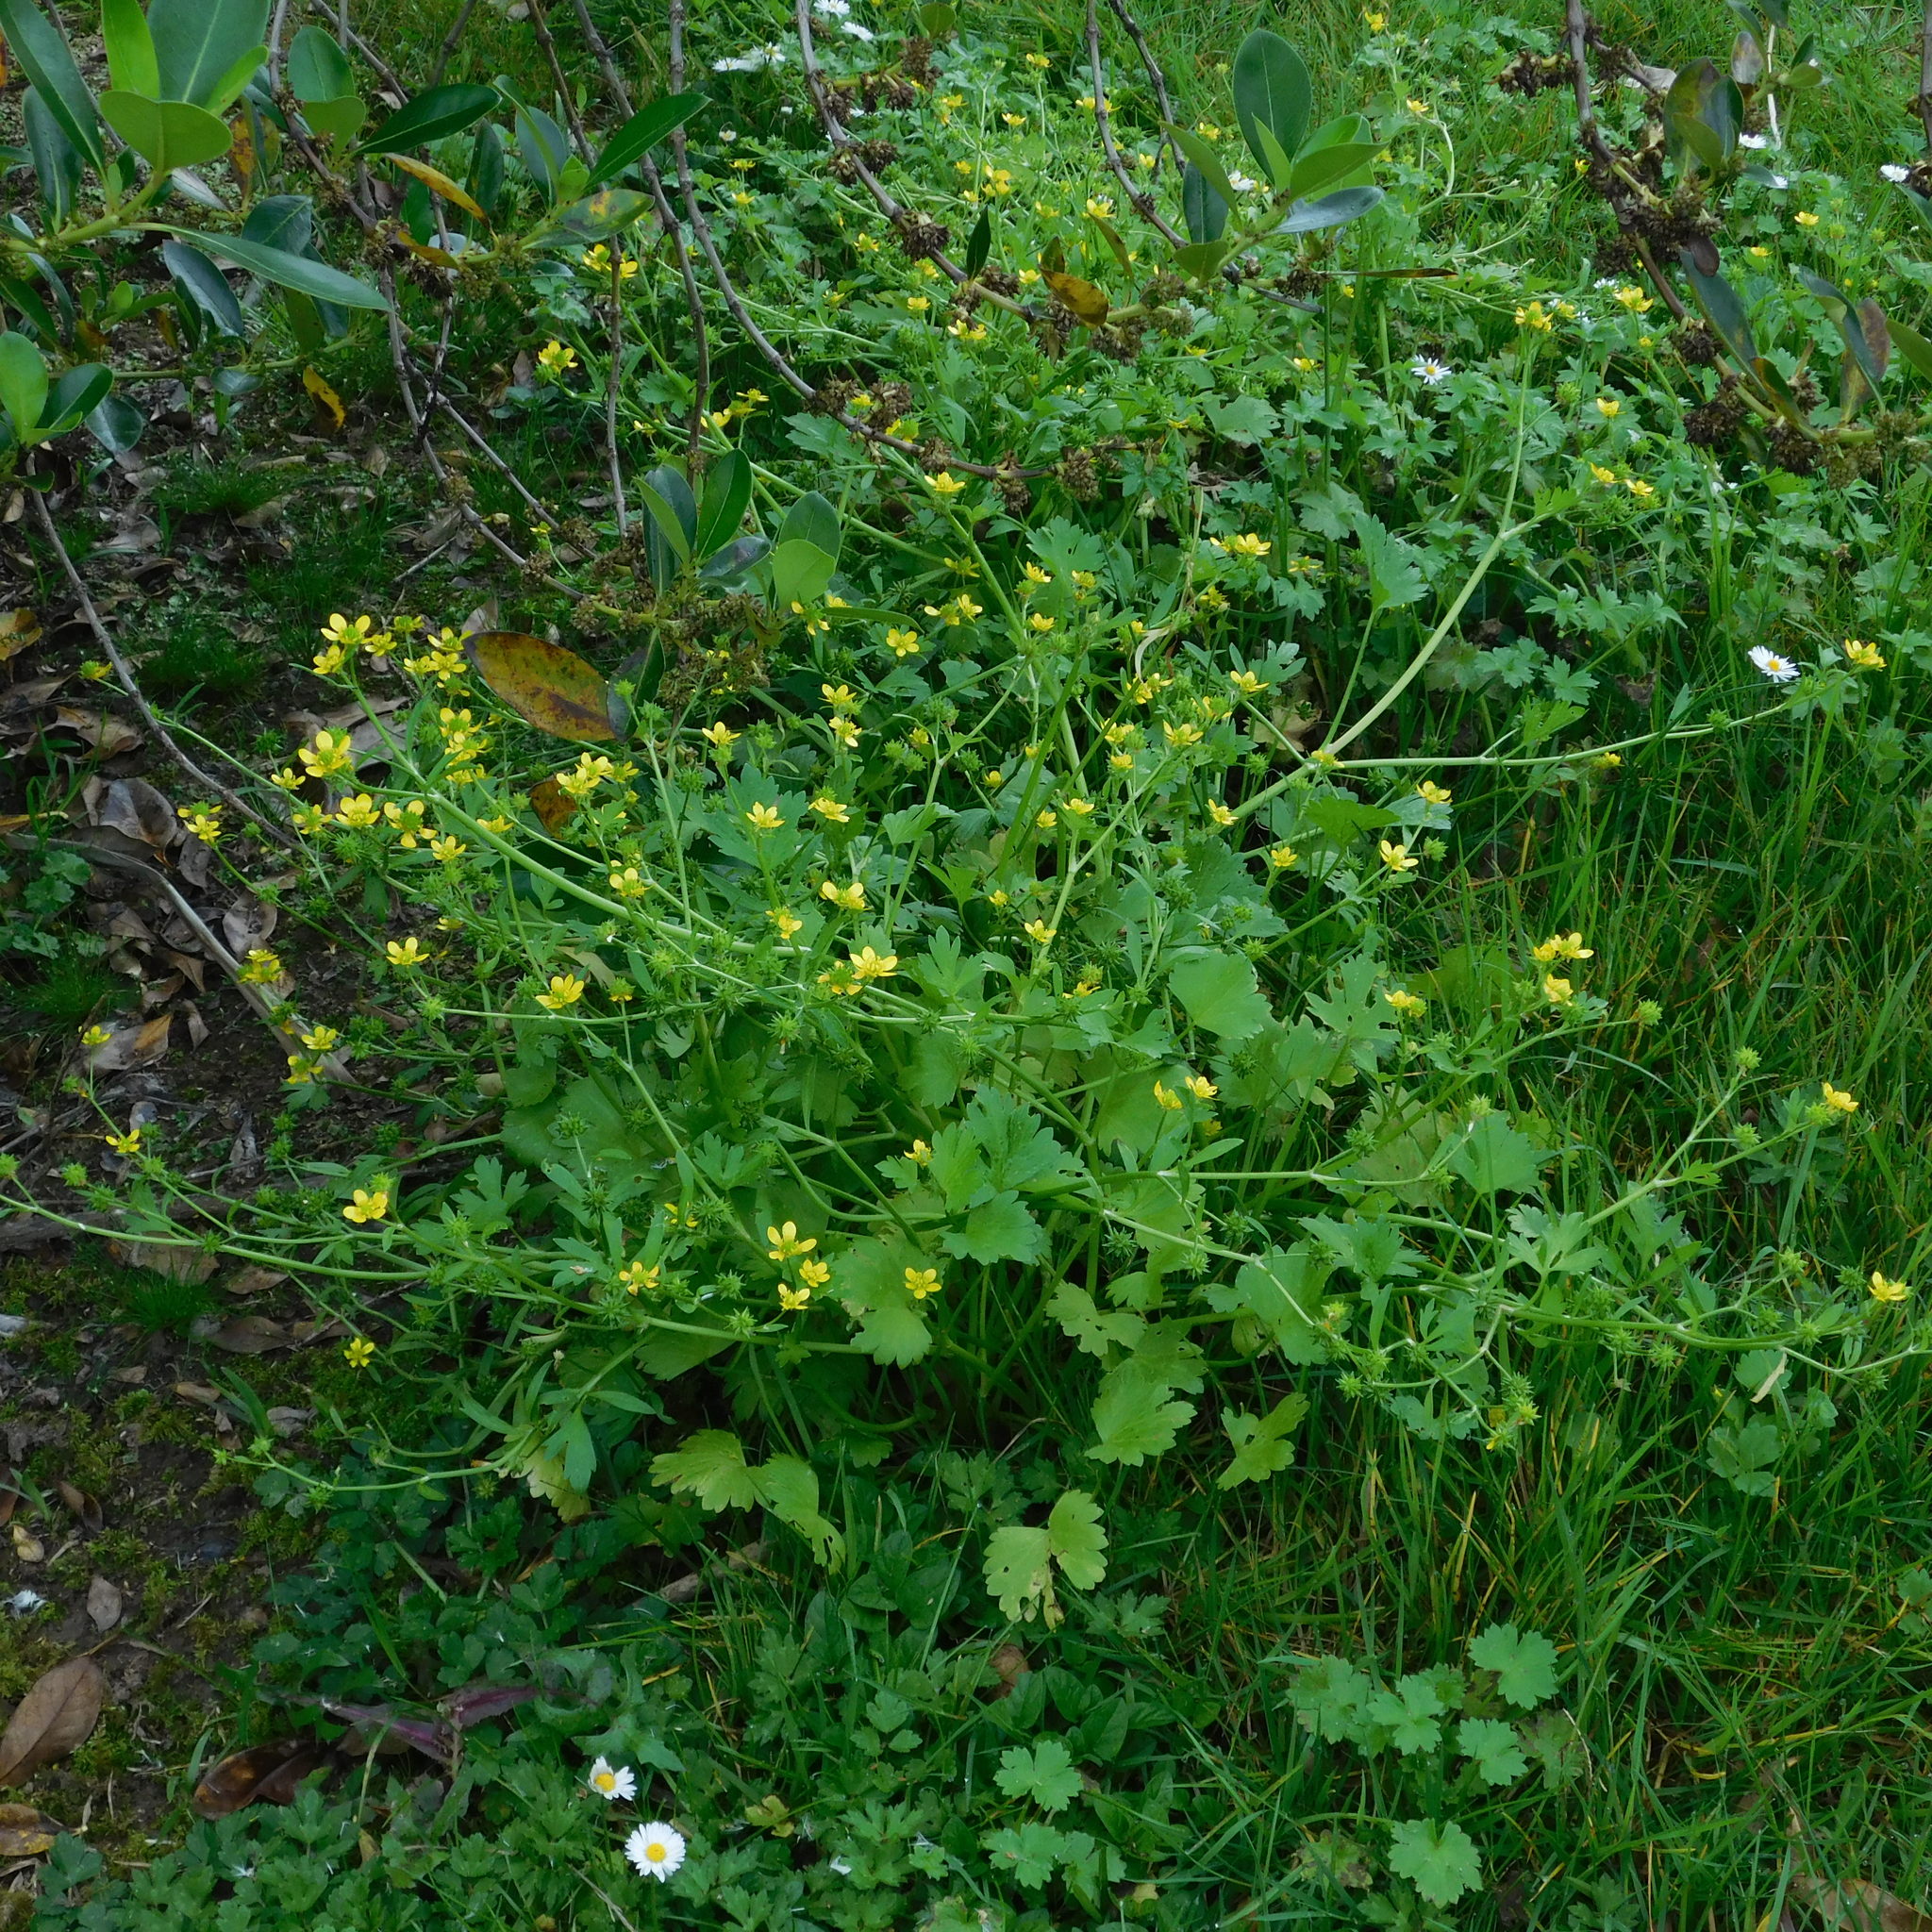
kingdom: Plantae
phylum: Tracheophyta
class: Magnoliopsida
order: Ranunculales
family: Ranunculaceae
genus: Ranunculus
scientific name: Ranunculus muricatus
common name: Rough-fruited buttercup
